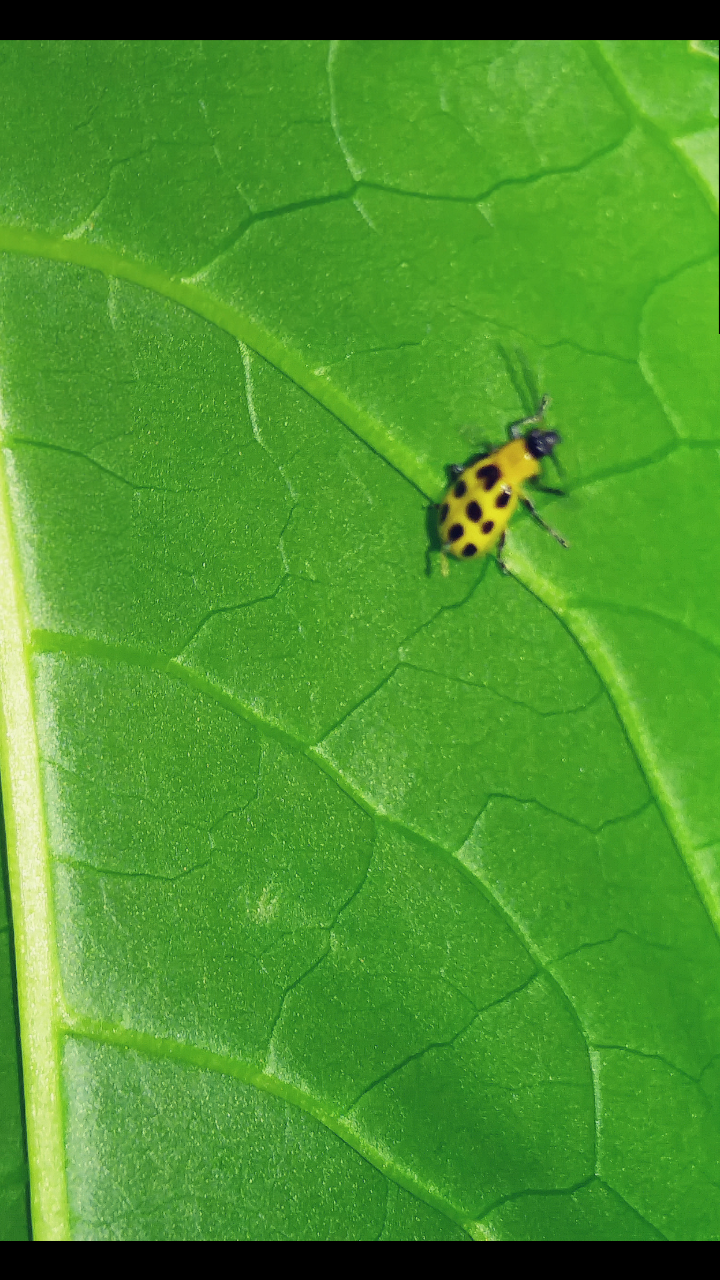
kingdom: Animalia
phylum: Arthropoda
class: Insecta
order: Coleoptera
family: Chrysomelidae
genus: Diabrotica
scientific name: Diabrotica undecimpunctata
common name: Spotted cucumber beetle
